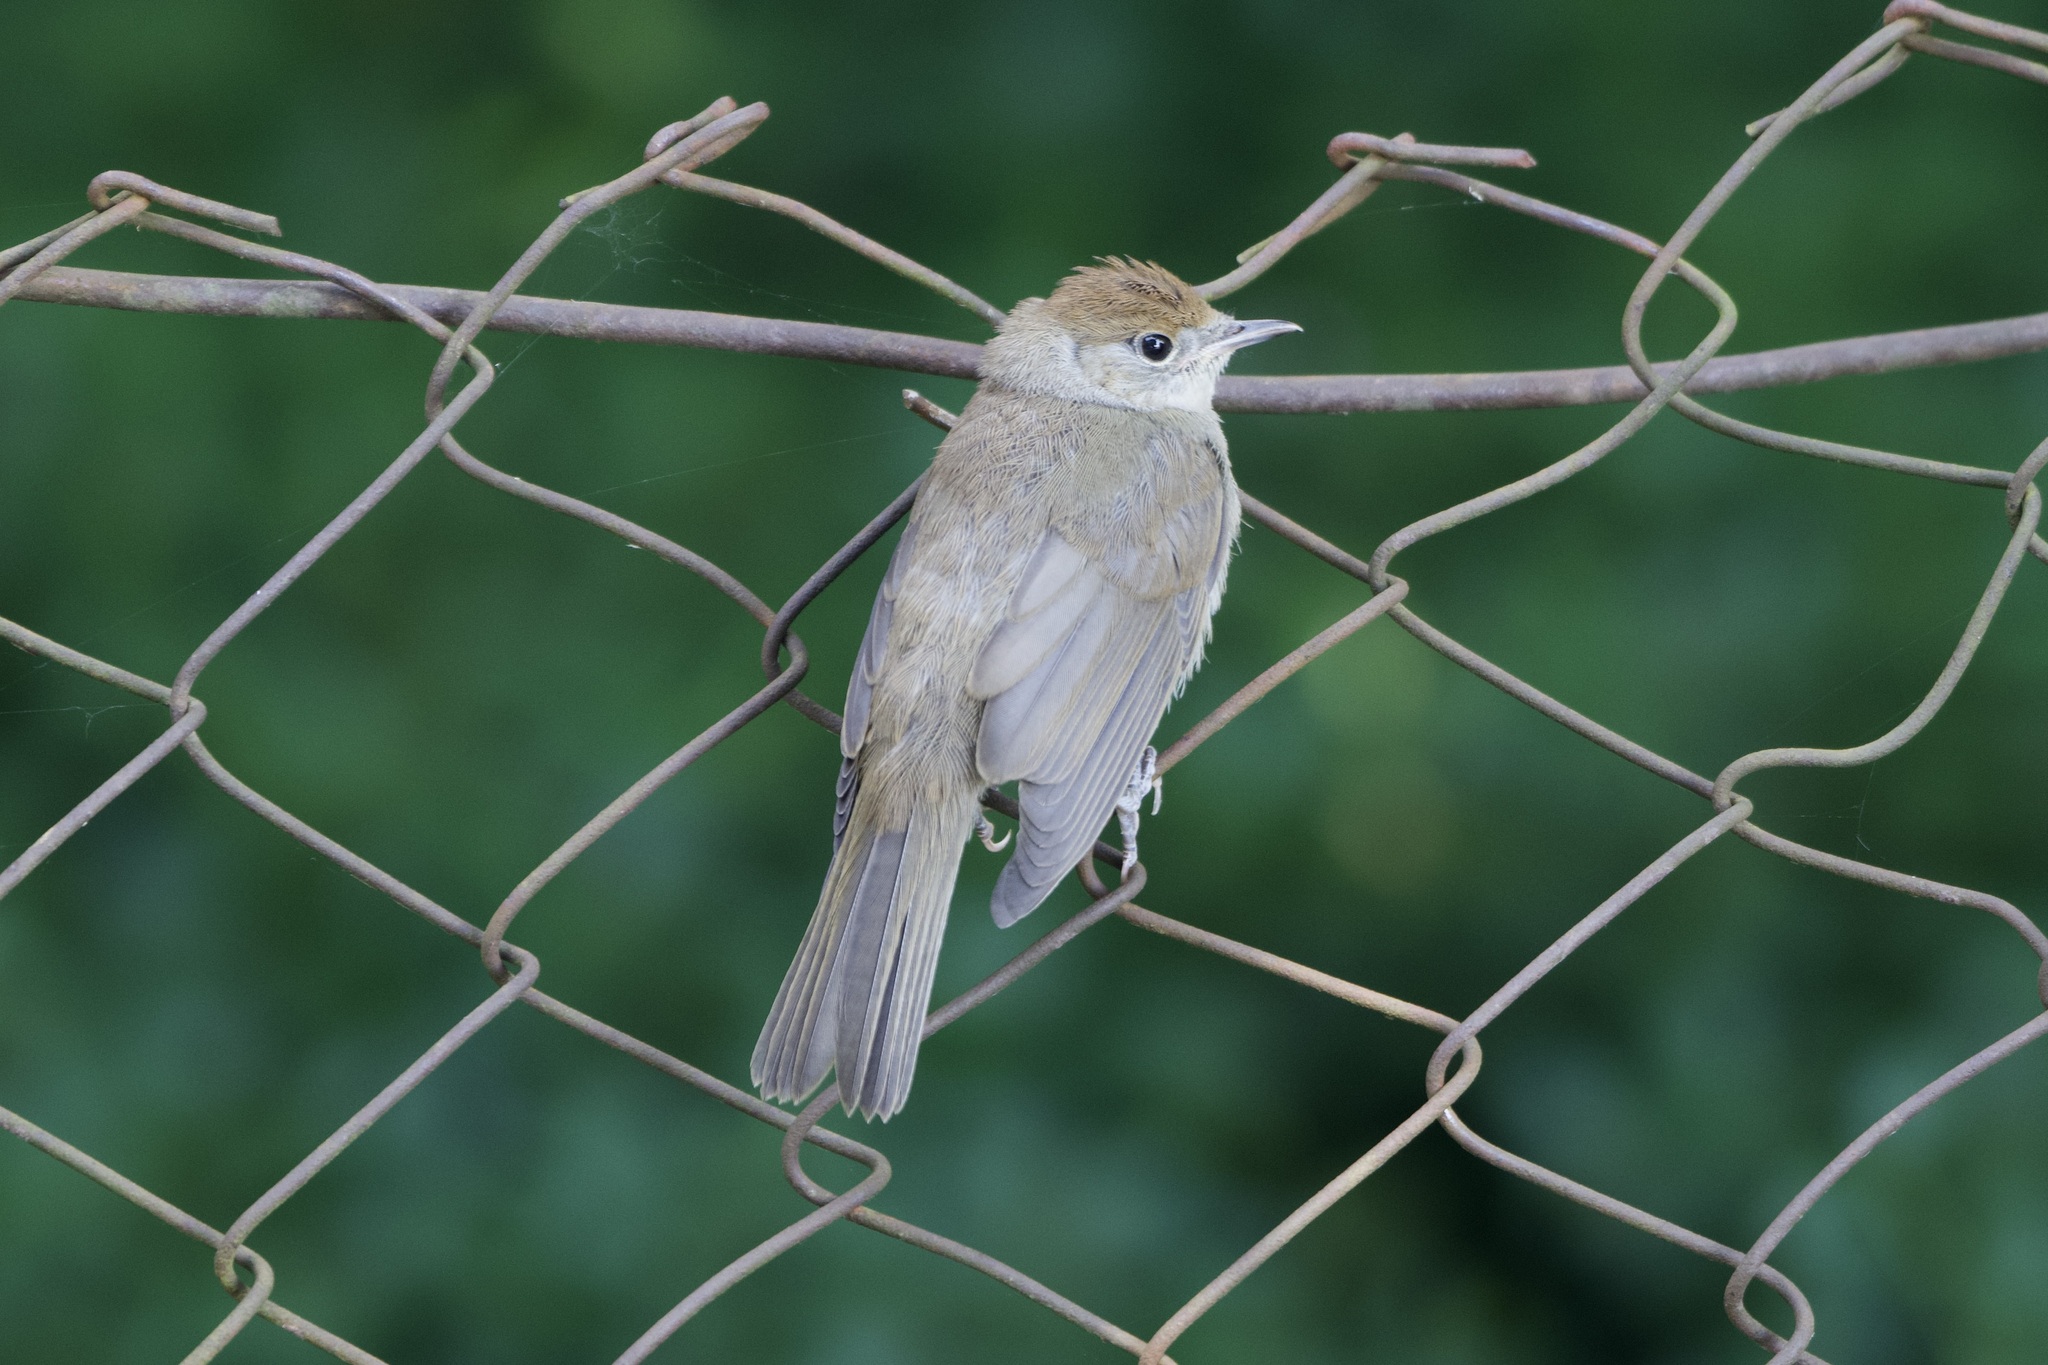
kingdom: Animalia
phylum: Chordata
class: Aves
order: Passeriformes
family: Sylviidae
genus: Sylvia
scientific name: Sylvia atricapilla
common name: Eurasian blackcap
